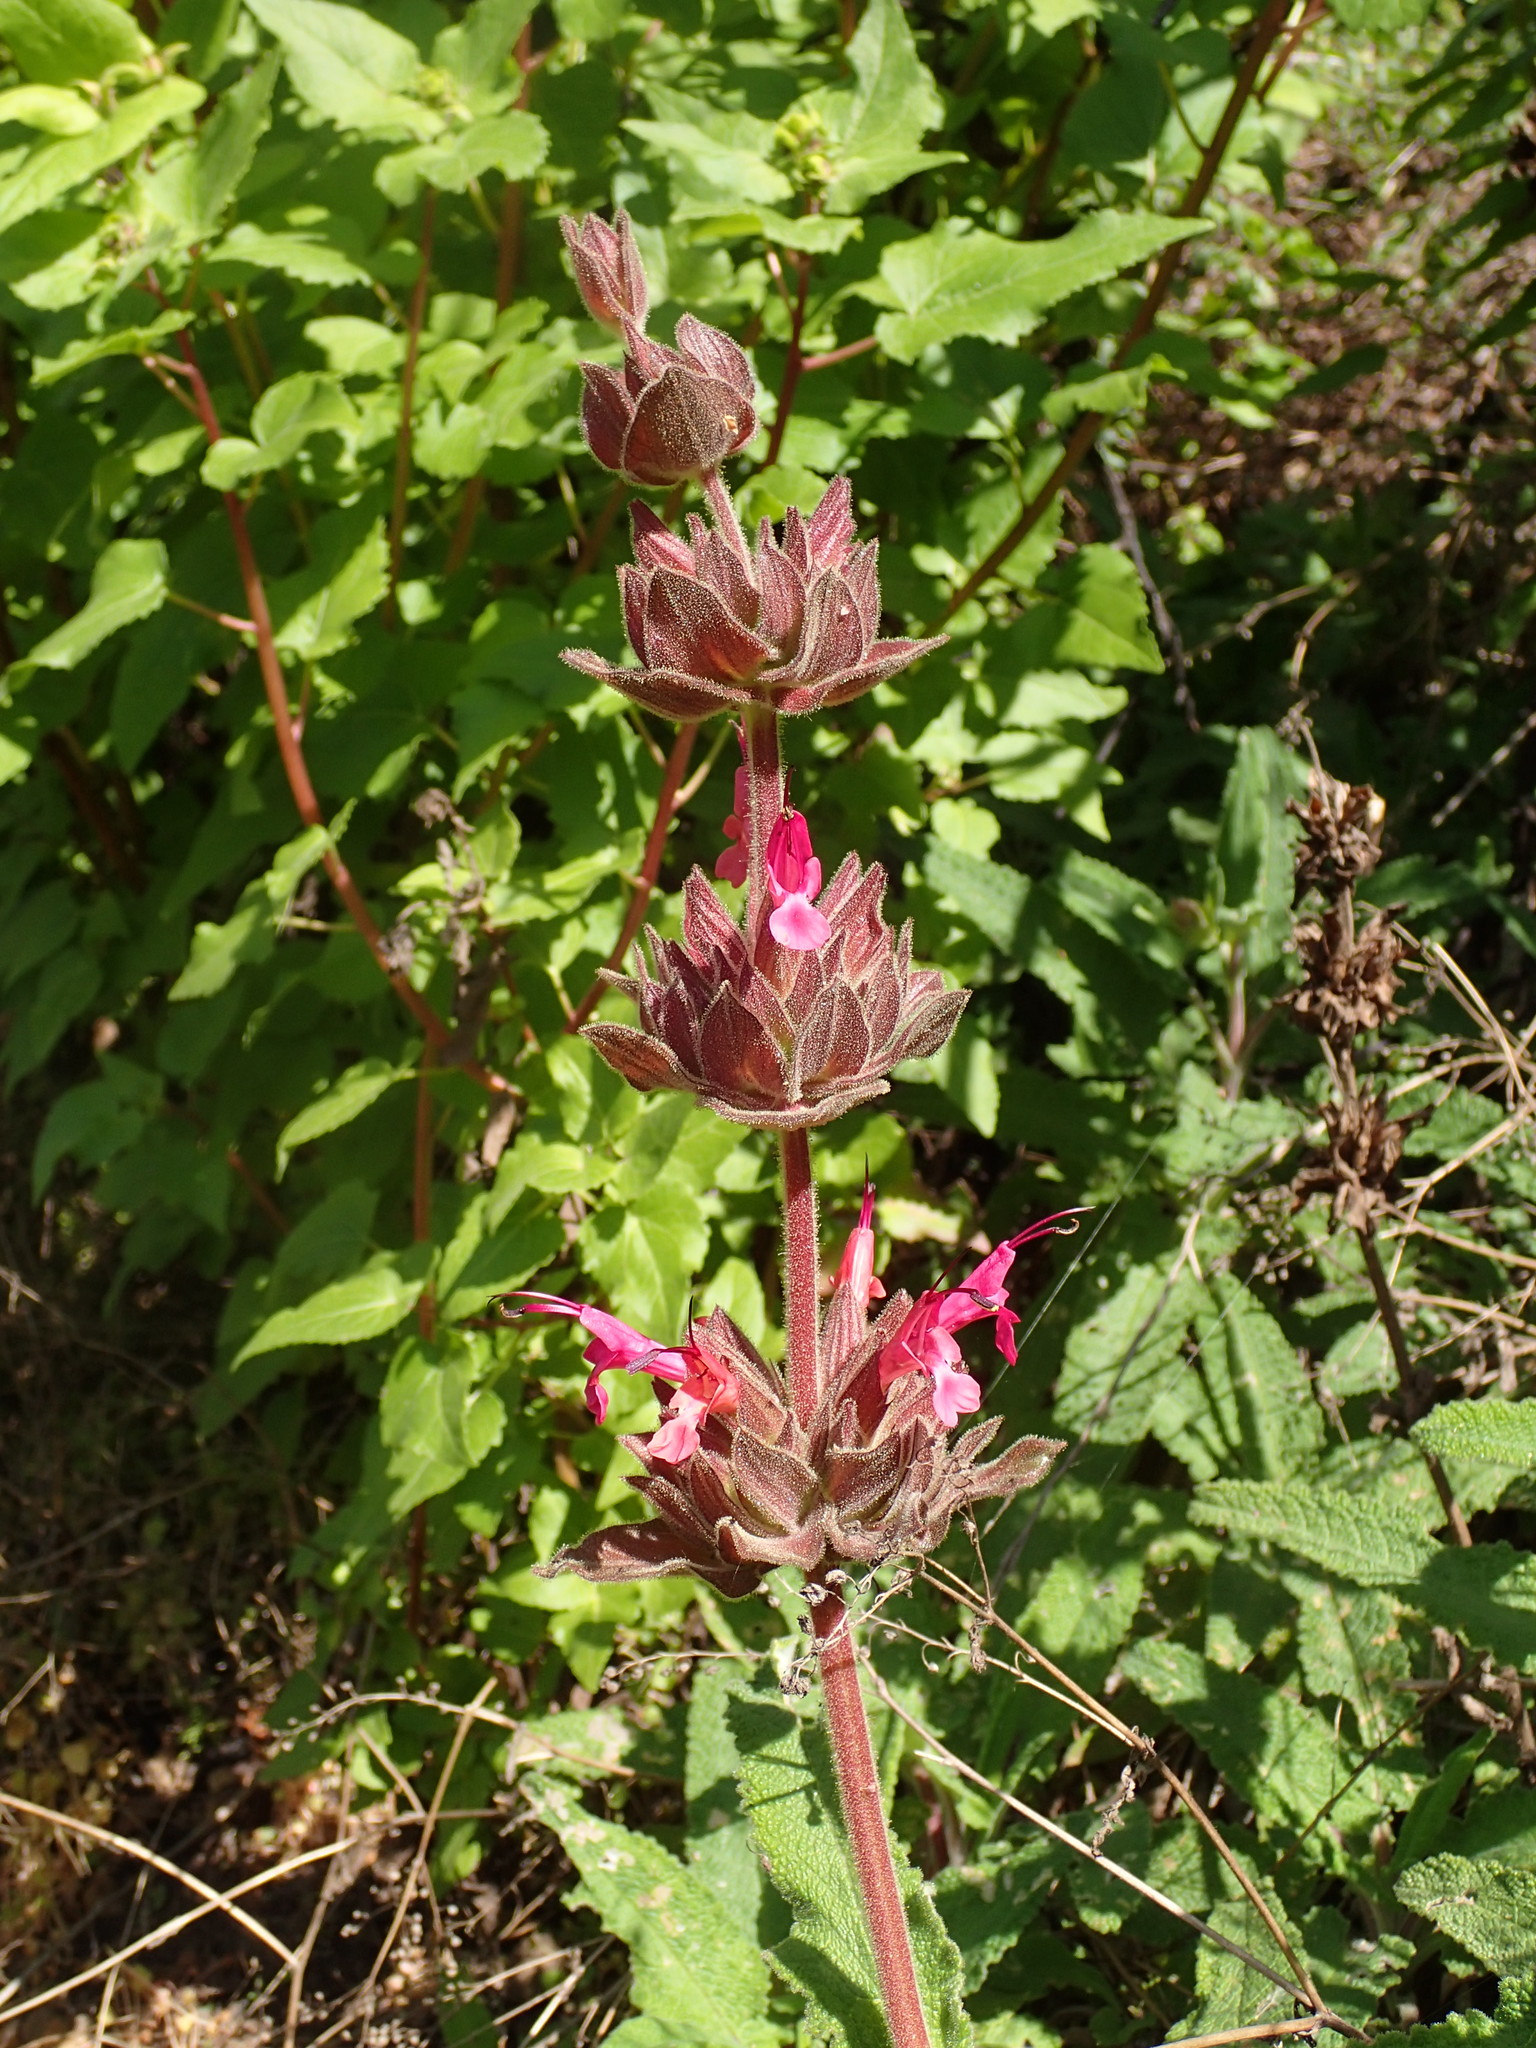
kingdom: Plantae
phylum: Tracheophyta
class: Magnoliopsida
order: Lamiales
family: Lamiaceae
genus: Salvia
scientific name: Salvia spathacea
